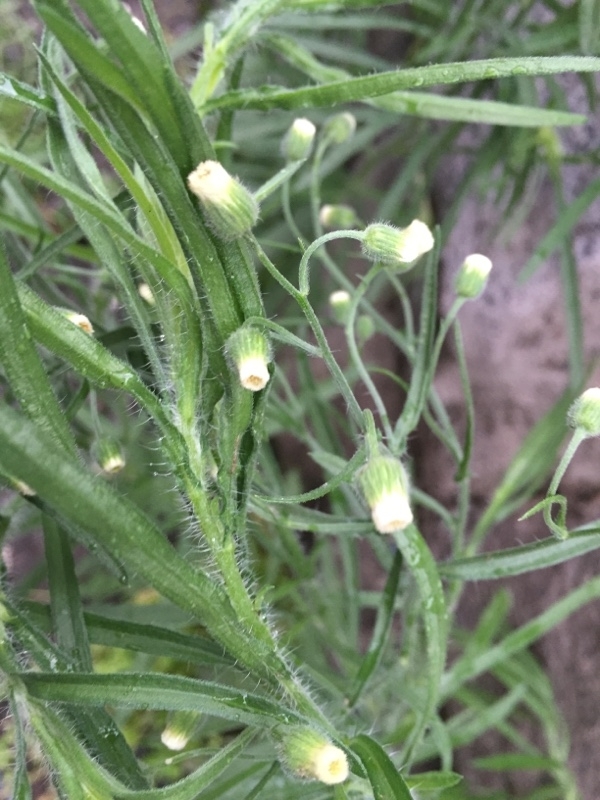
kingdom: Plantae
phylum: Tracheophyta
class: Magnoliopsida
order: Asterales
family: Asteraceae
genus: Erigeron
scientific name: Erigeron canadensis
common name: Canadian fleabane
